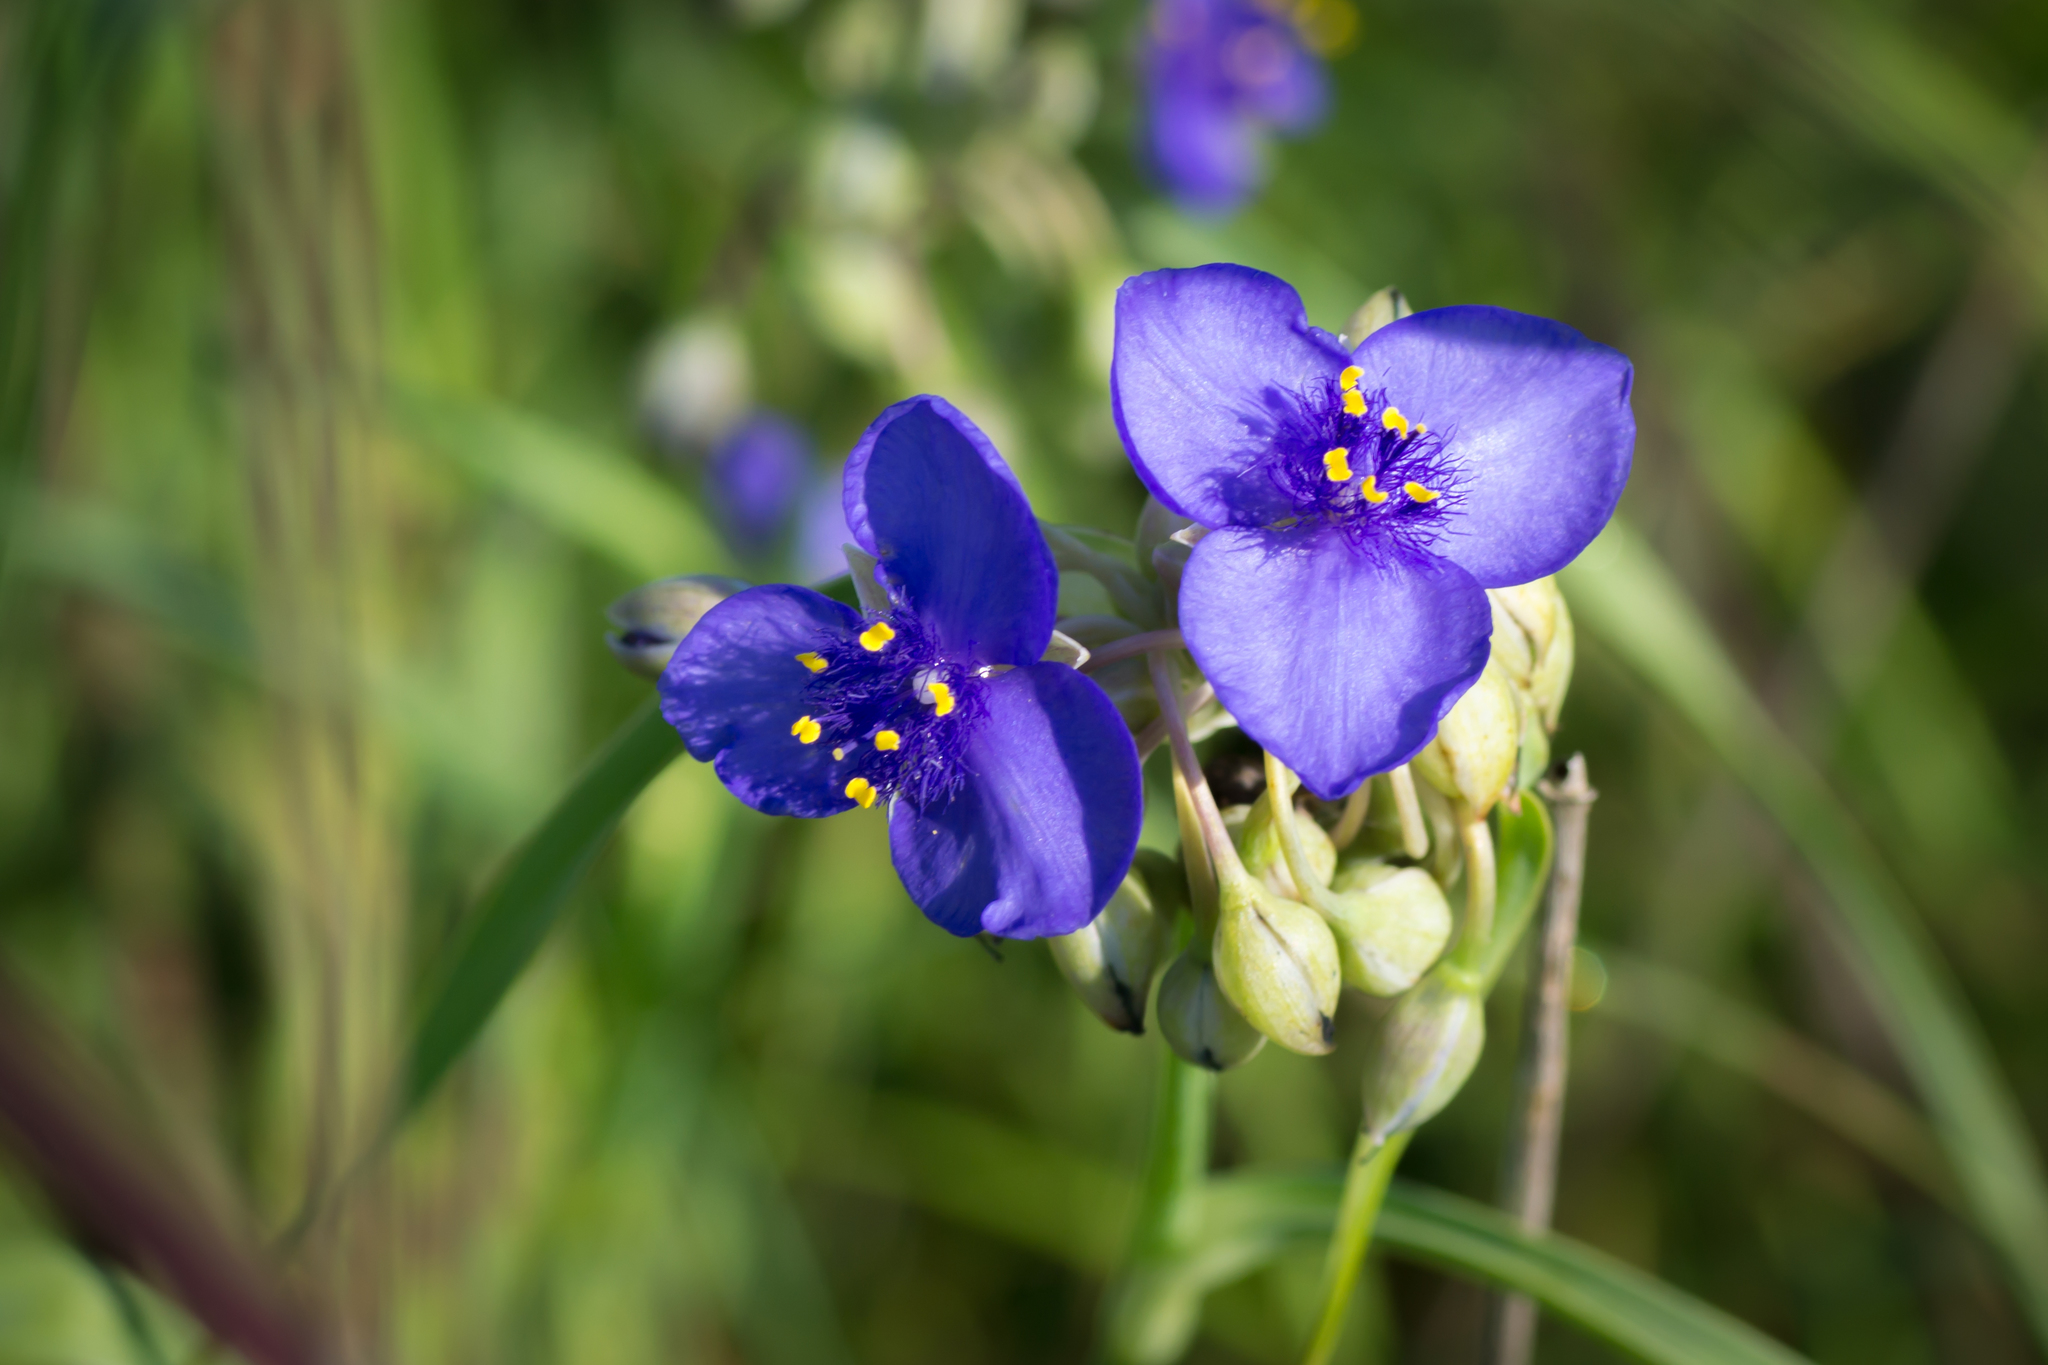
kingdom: Plantae
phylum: Tracheophyta
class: Liliopsida
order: Commelinales
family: Commelinaceae
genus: Tradescantia
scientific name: Tradescantia ohiensis
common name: Ohio spiderwort
